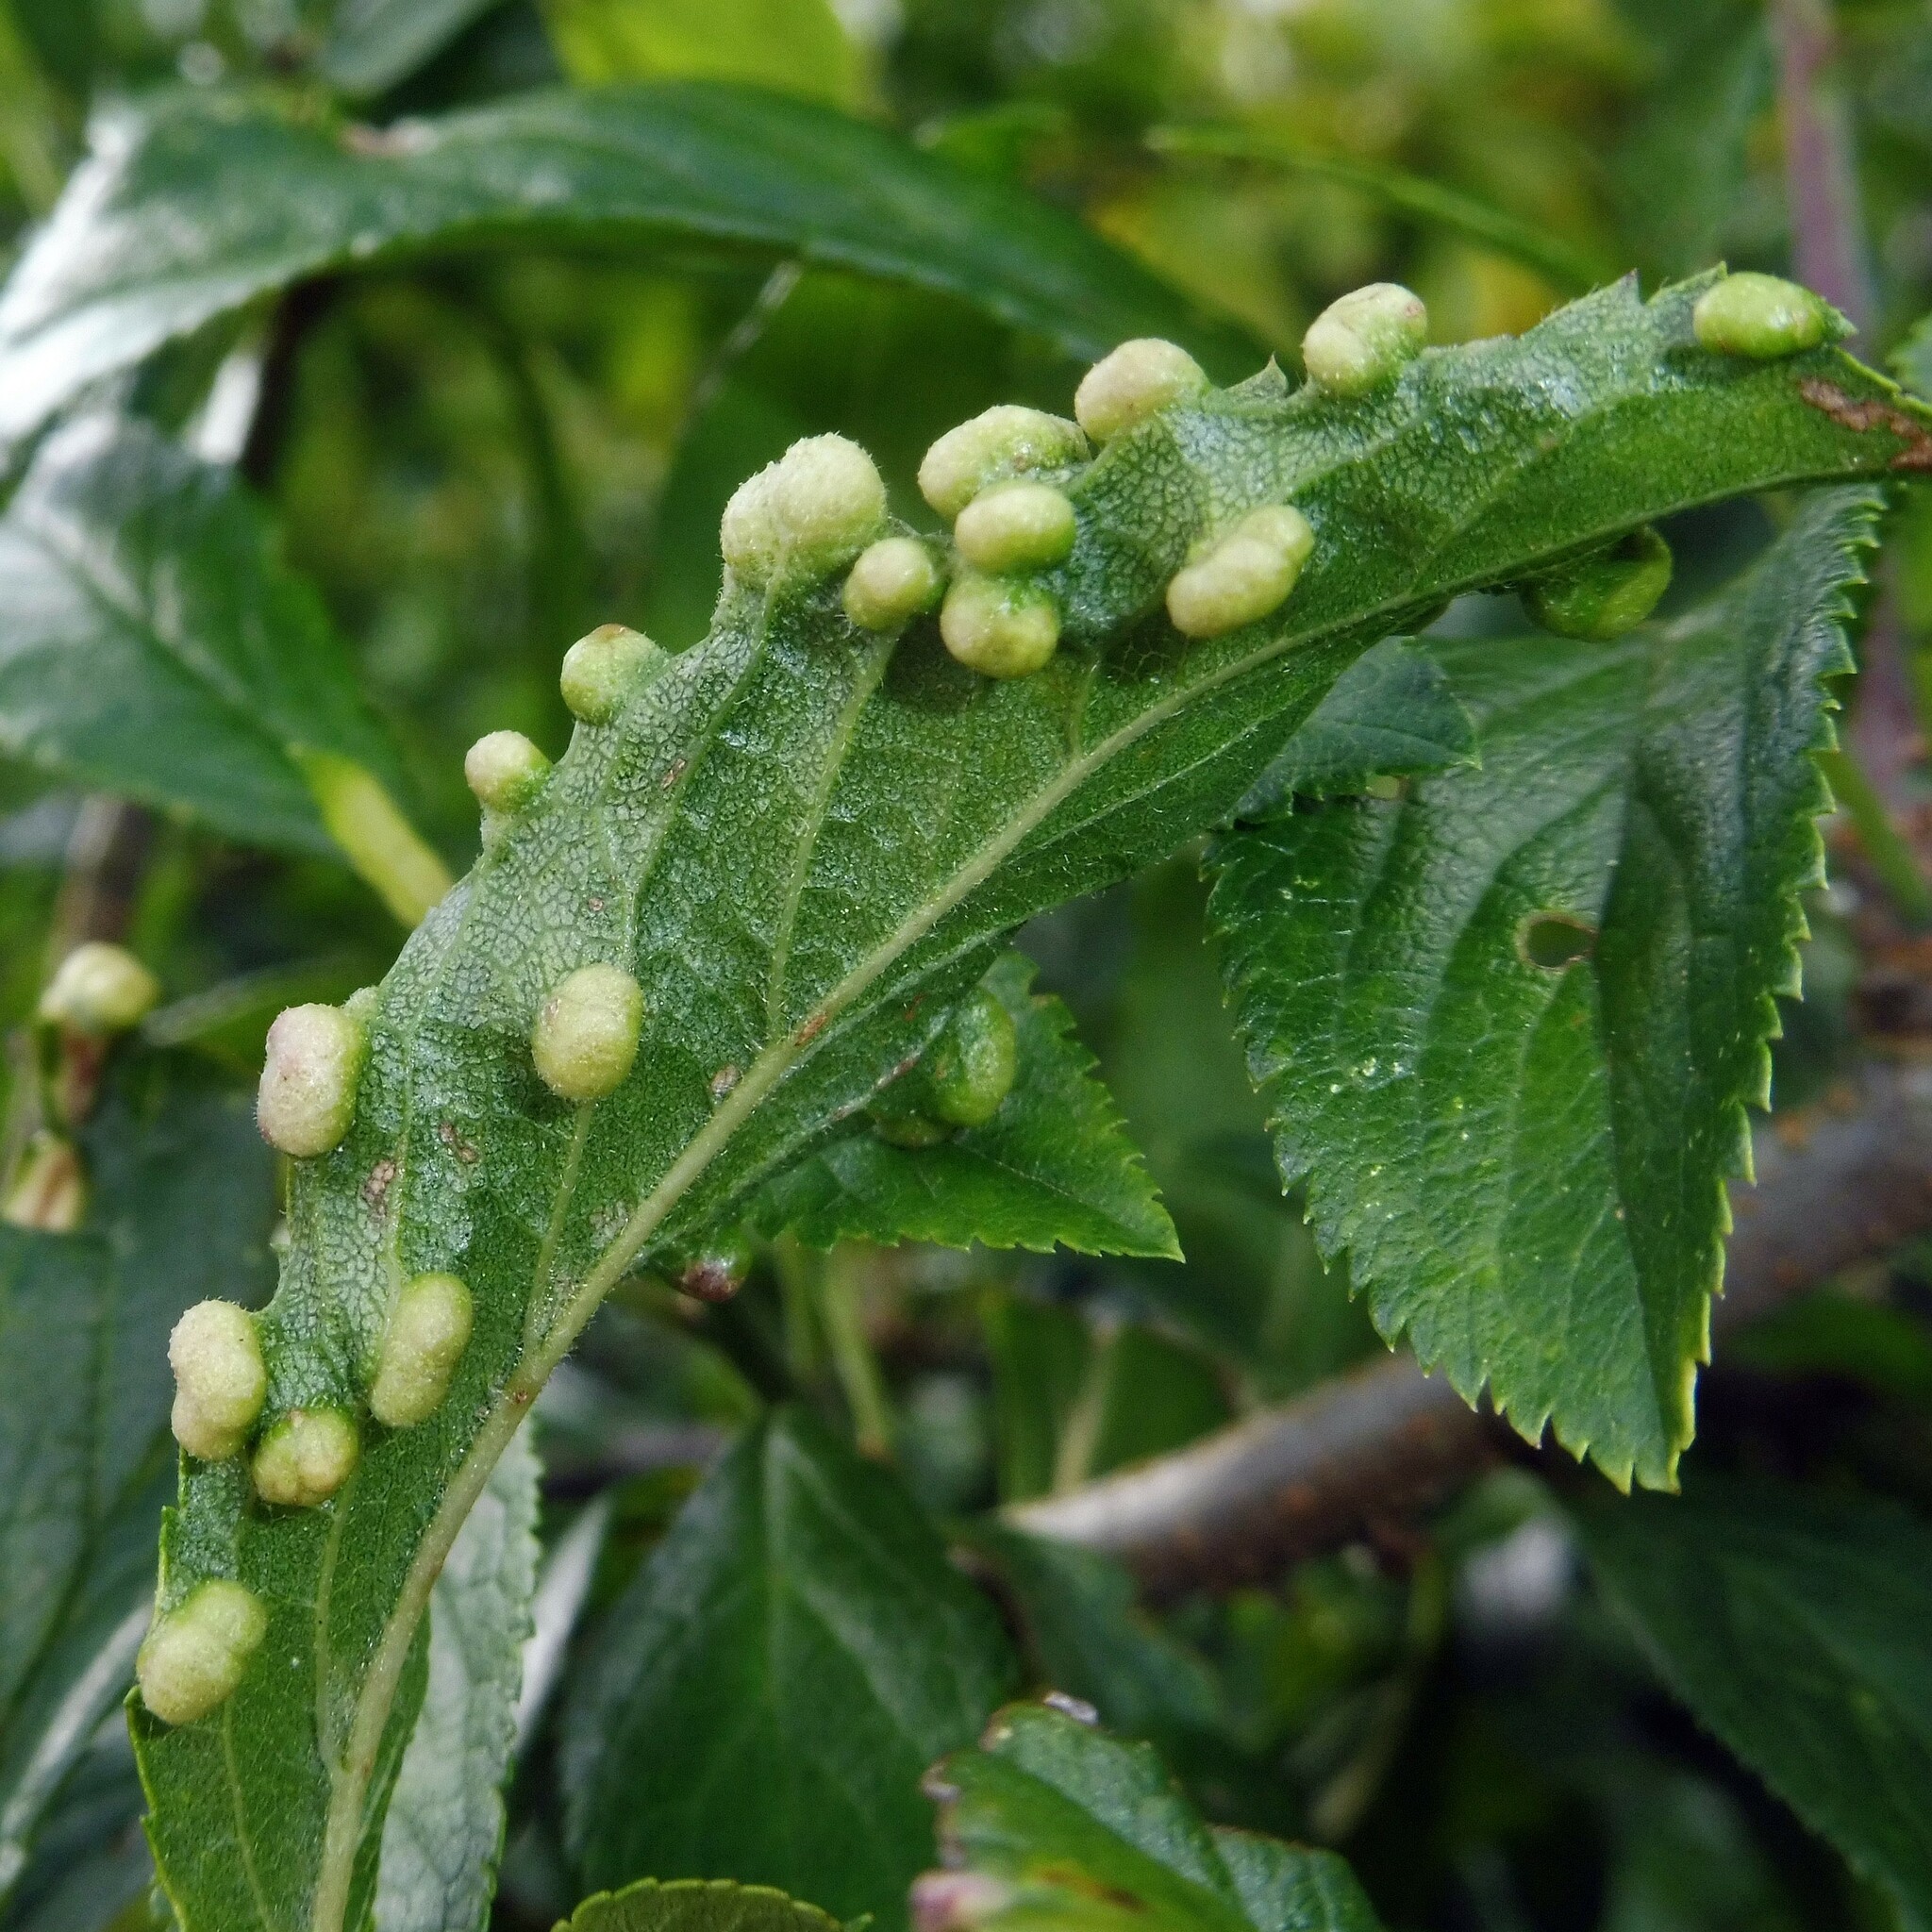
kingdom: Animalia
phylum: Arthropoda
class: Arachnida
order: Trombidiformes
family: Eriophyidae
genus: Eriophyes
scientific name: Eriophyes similis
